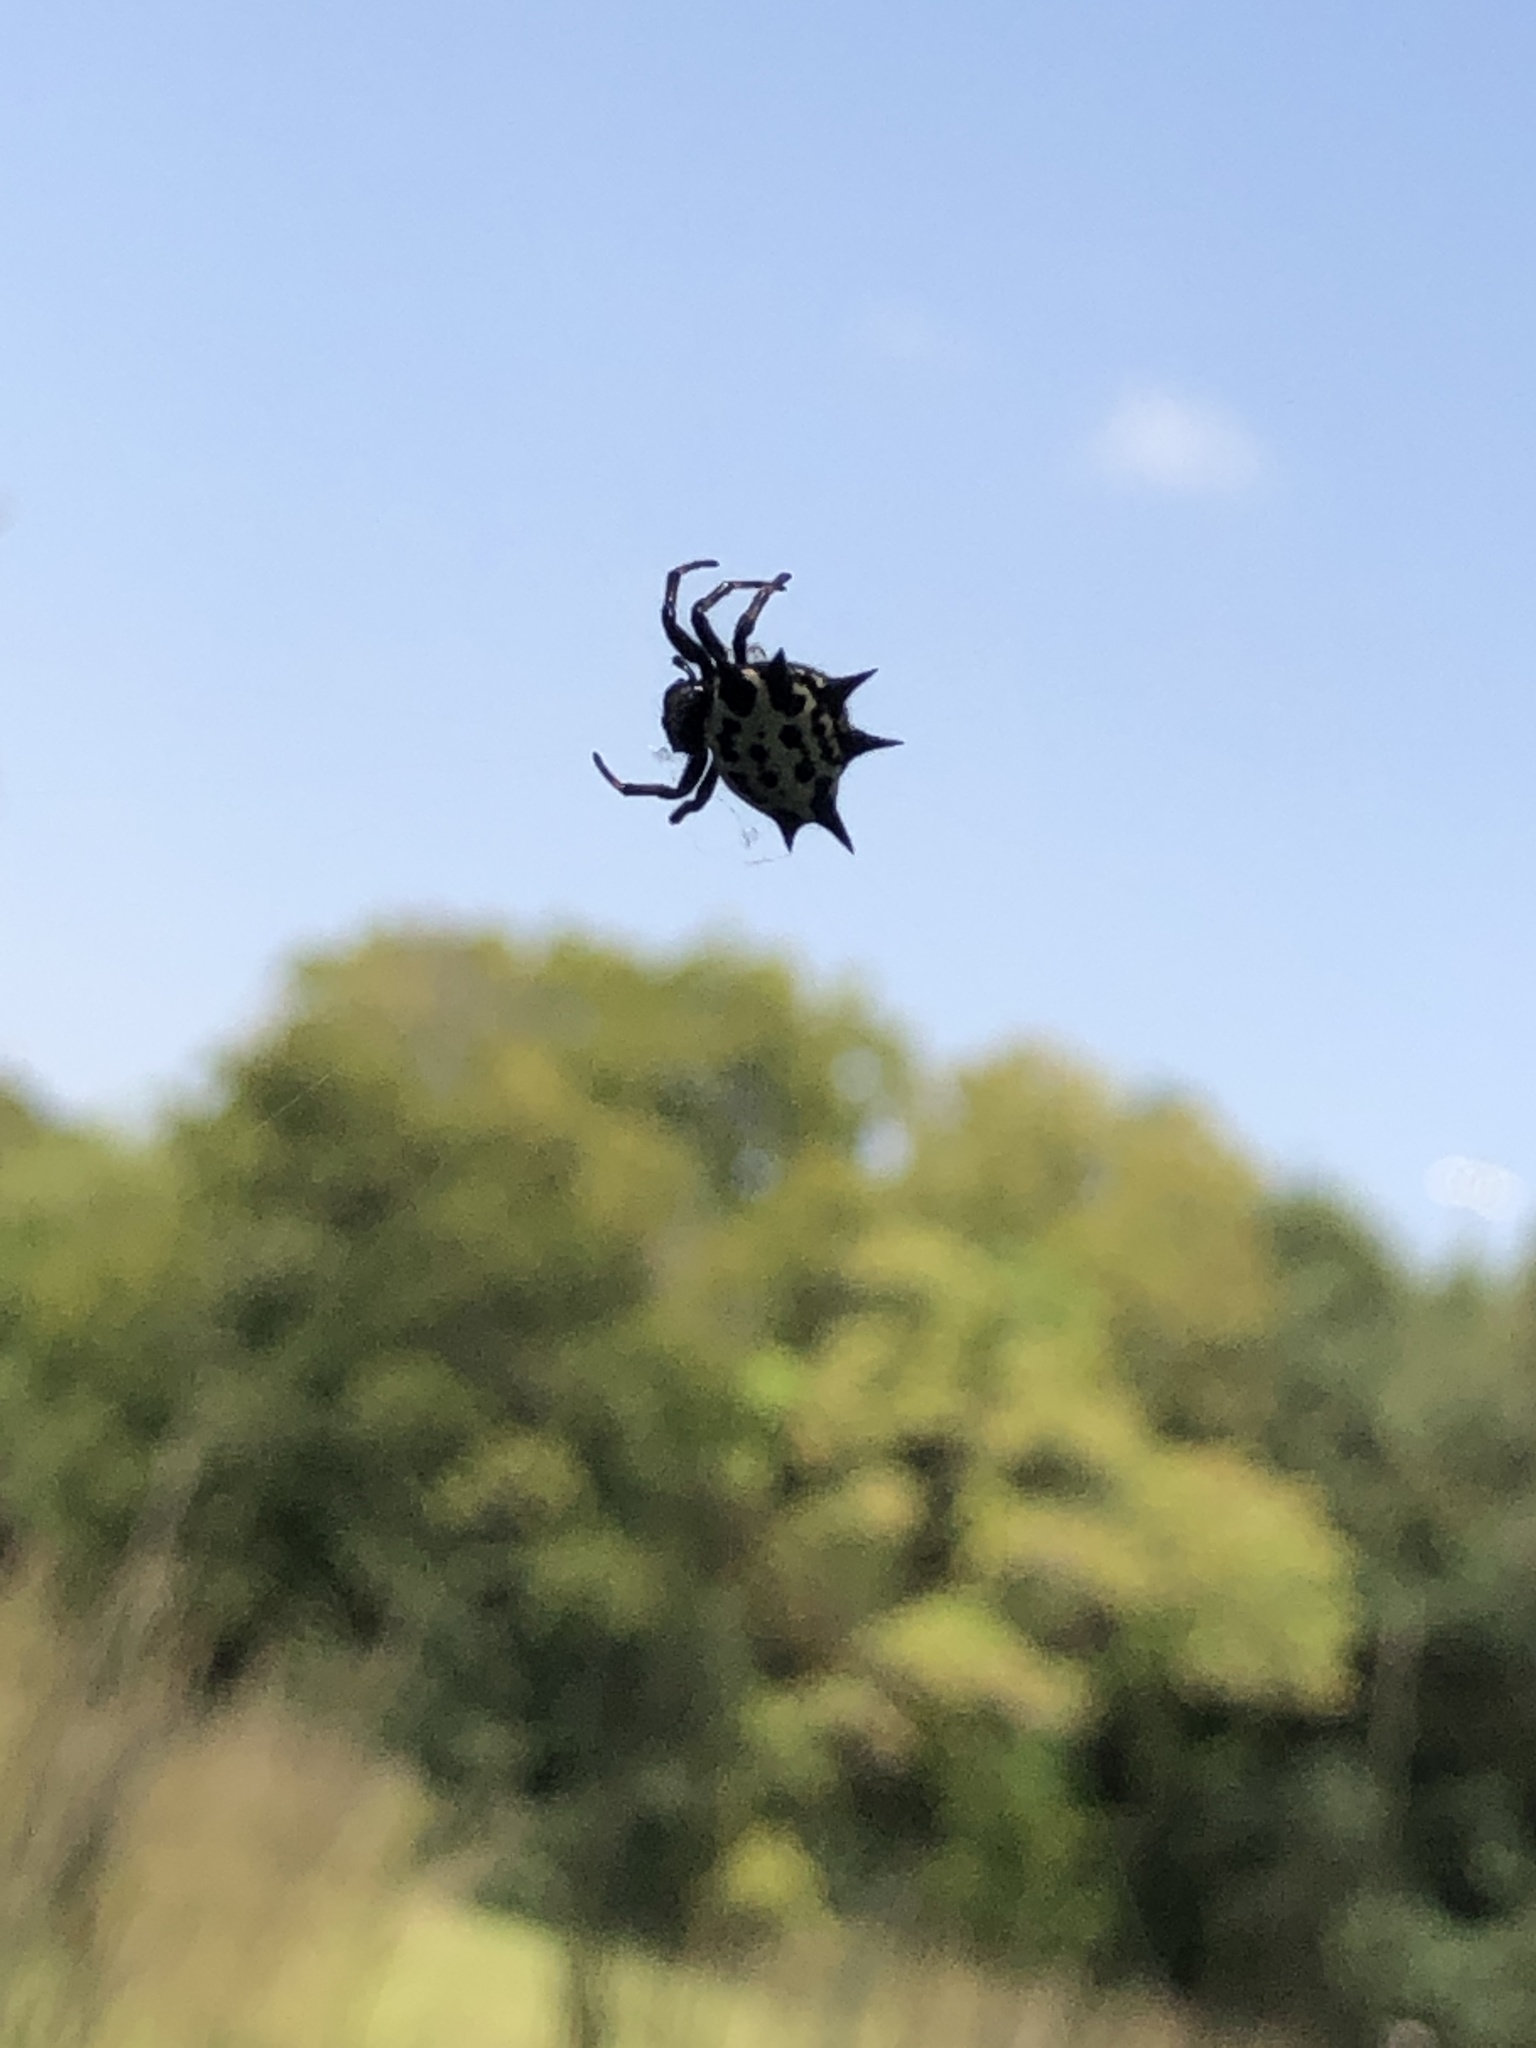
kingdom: Animalia
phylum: Arthropoda
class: Arachnida
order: Araneae
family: Araneidae
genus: Gasteracantha
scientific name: Gasteracantha cancriformis
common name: Orb weavers
